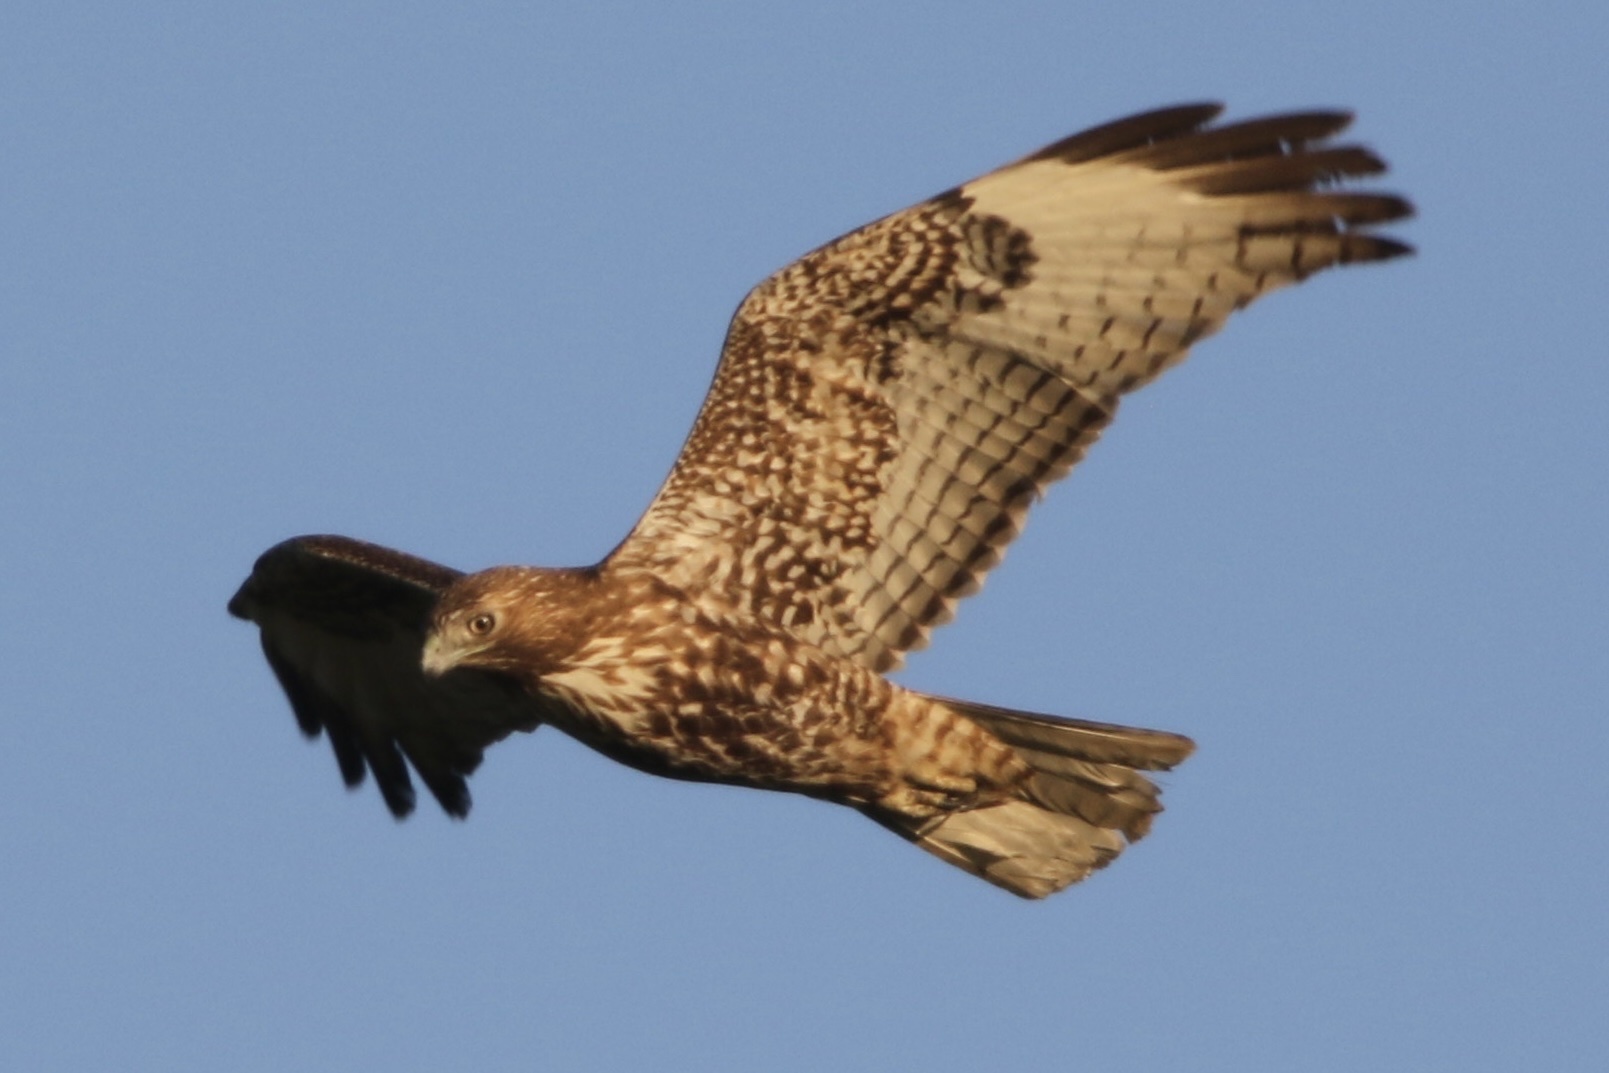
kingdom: Animalia
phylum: Chordata
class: Aves
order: Accipitriformes
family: Accipitridae
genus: Buteo
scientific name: Buteo jamaicensis
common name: Red-tailed hawk
